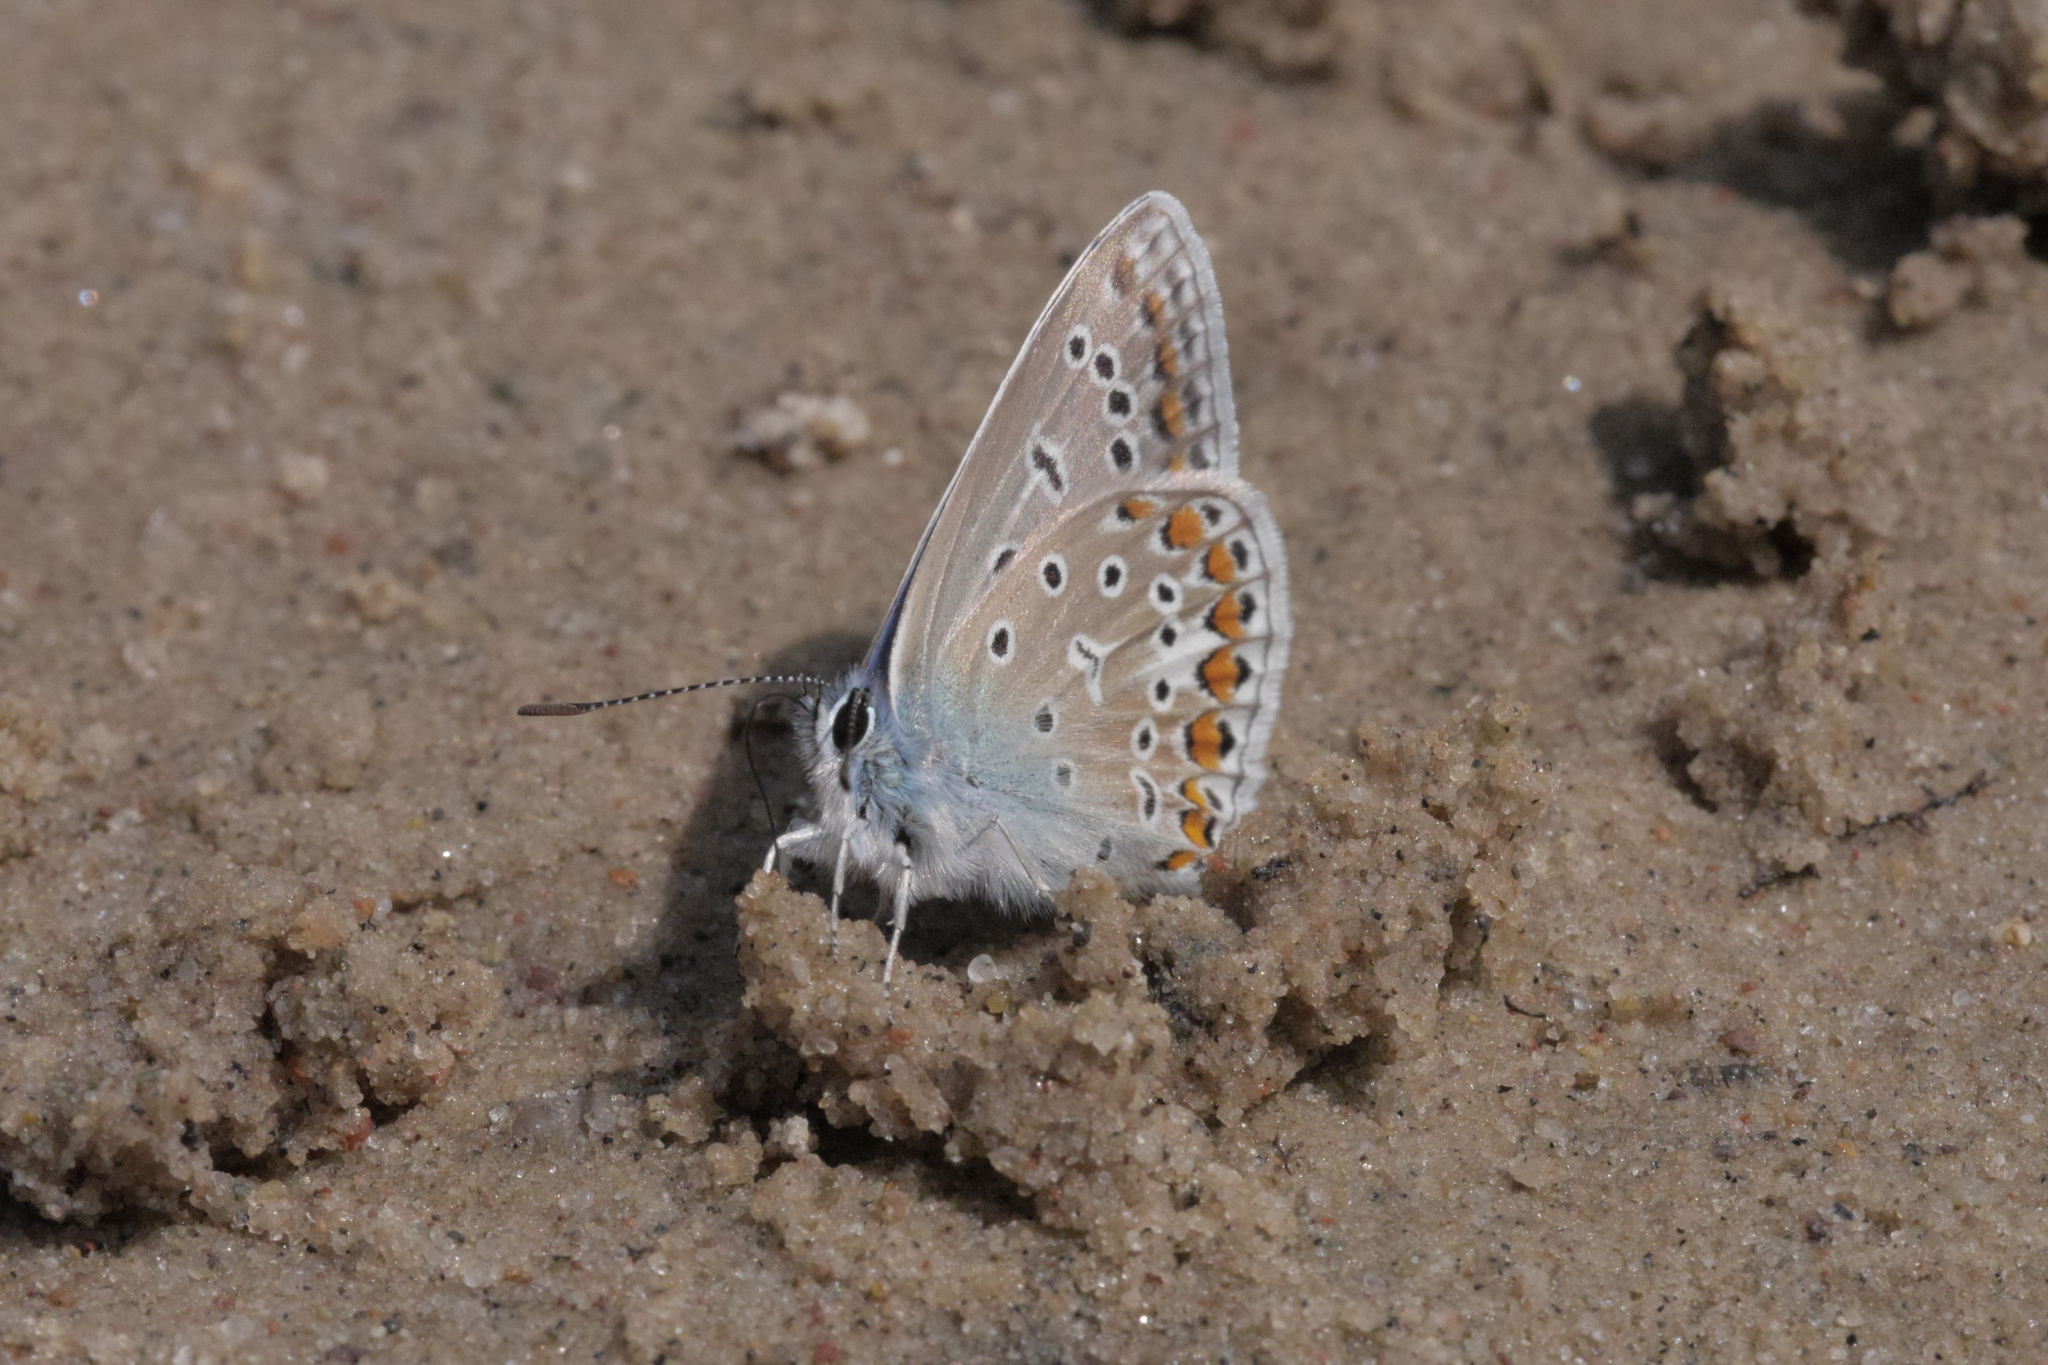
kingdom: Animalia
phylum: Arthropoda
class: Insecta
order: Lepidoptera
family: Lycaenidae
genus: Polyommatus
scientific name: Polyommatus icarus
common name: Common blue
